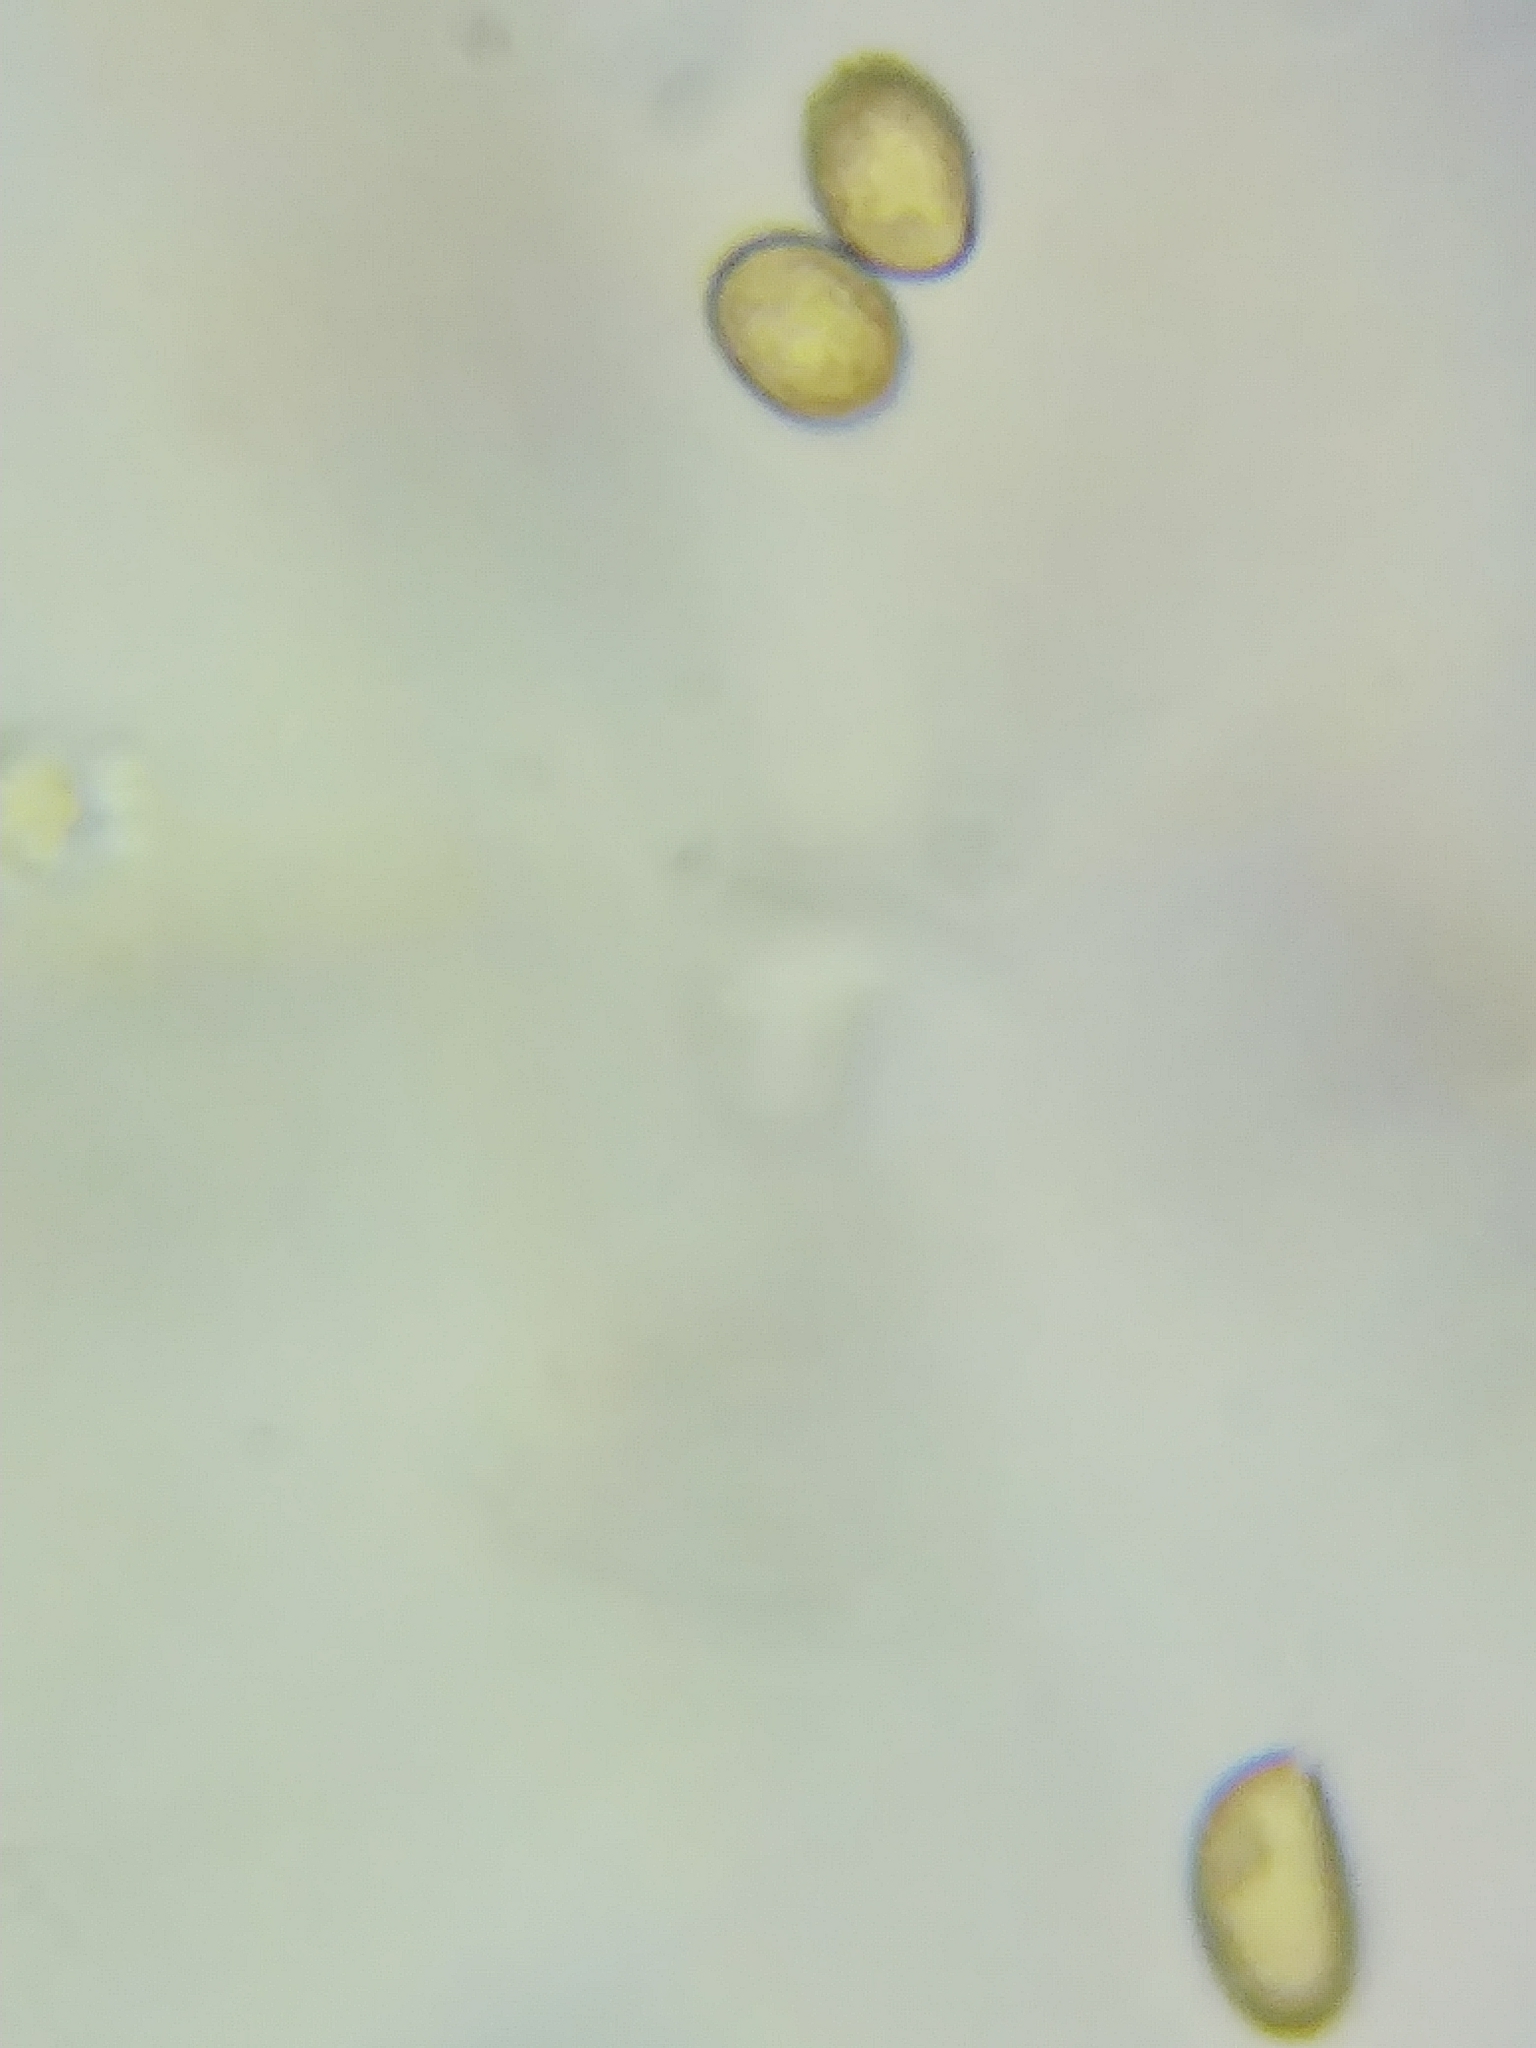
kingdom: Fungi
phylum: Basidiomycota
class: Agaricomycetes
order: Agaricales
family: Cortinariaceae
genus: Cortinarius
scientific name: Cortinarius flexipes
